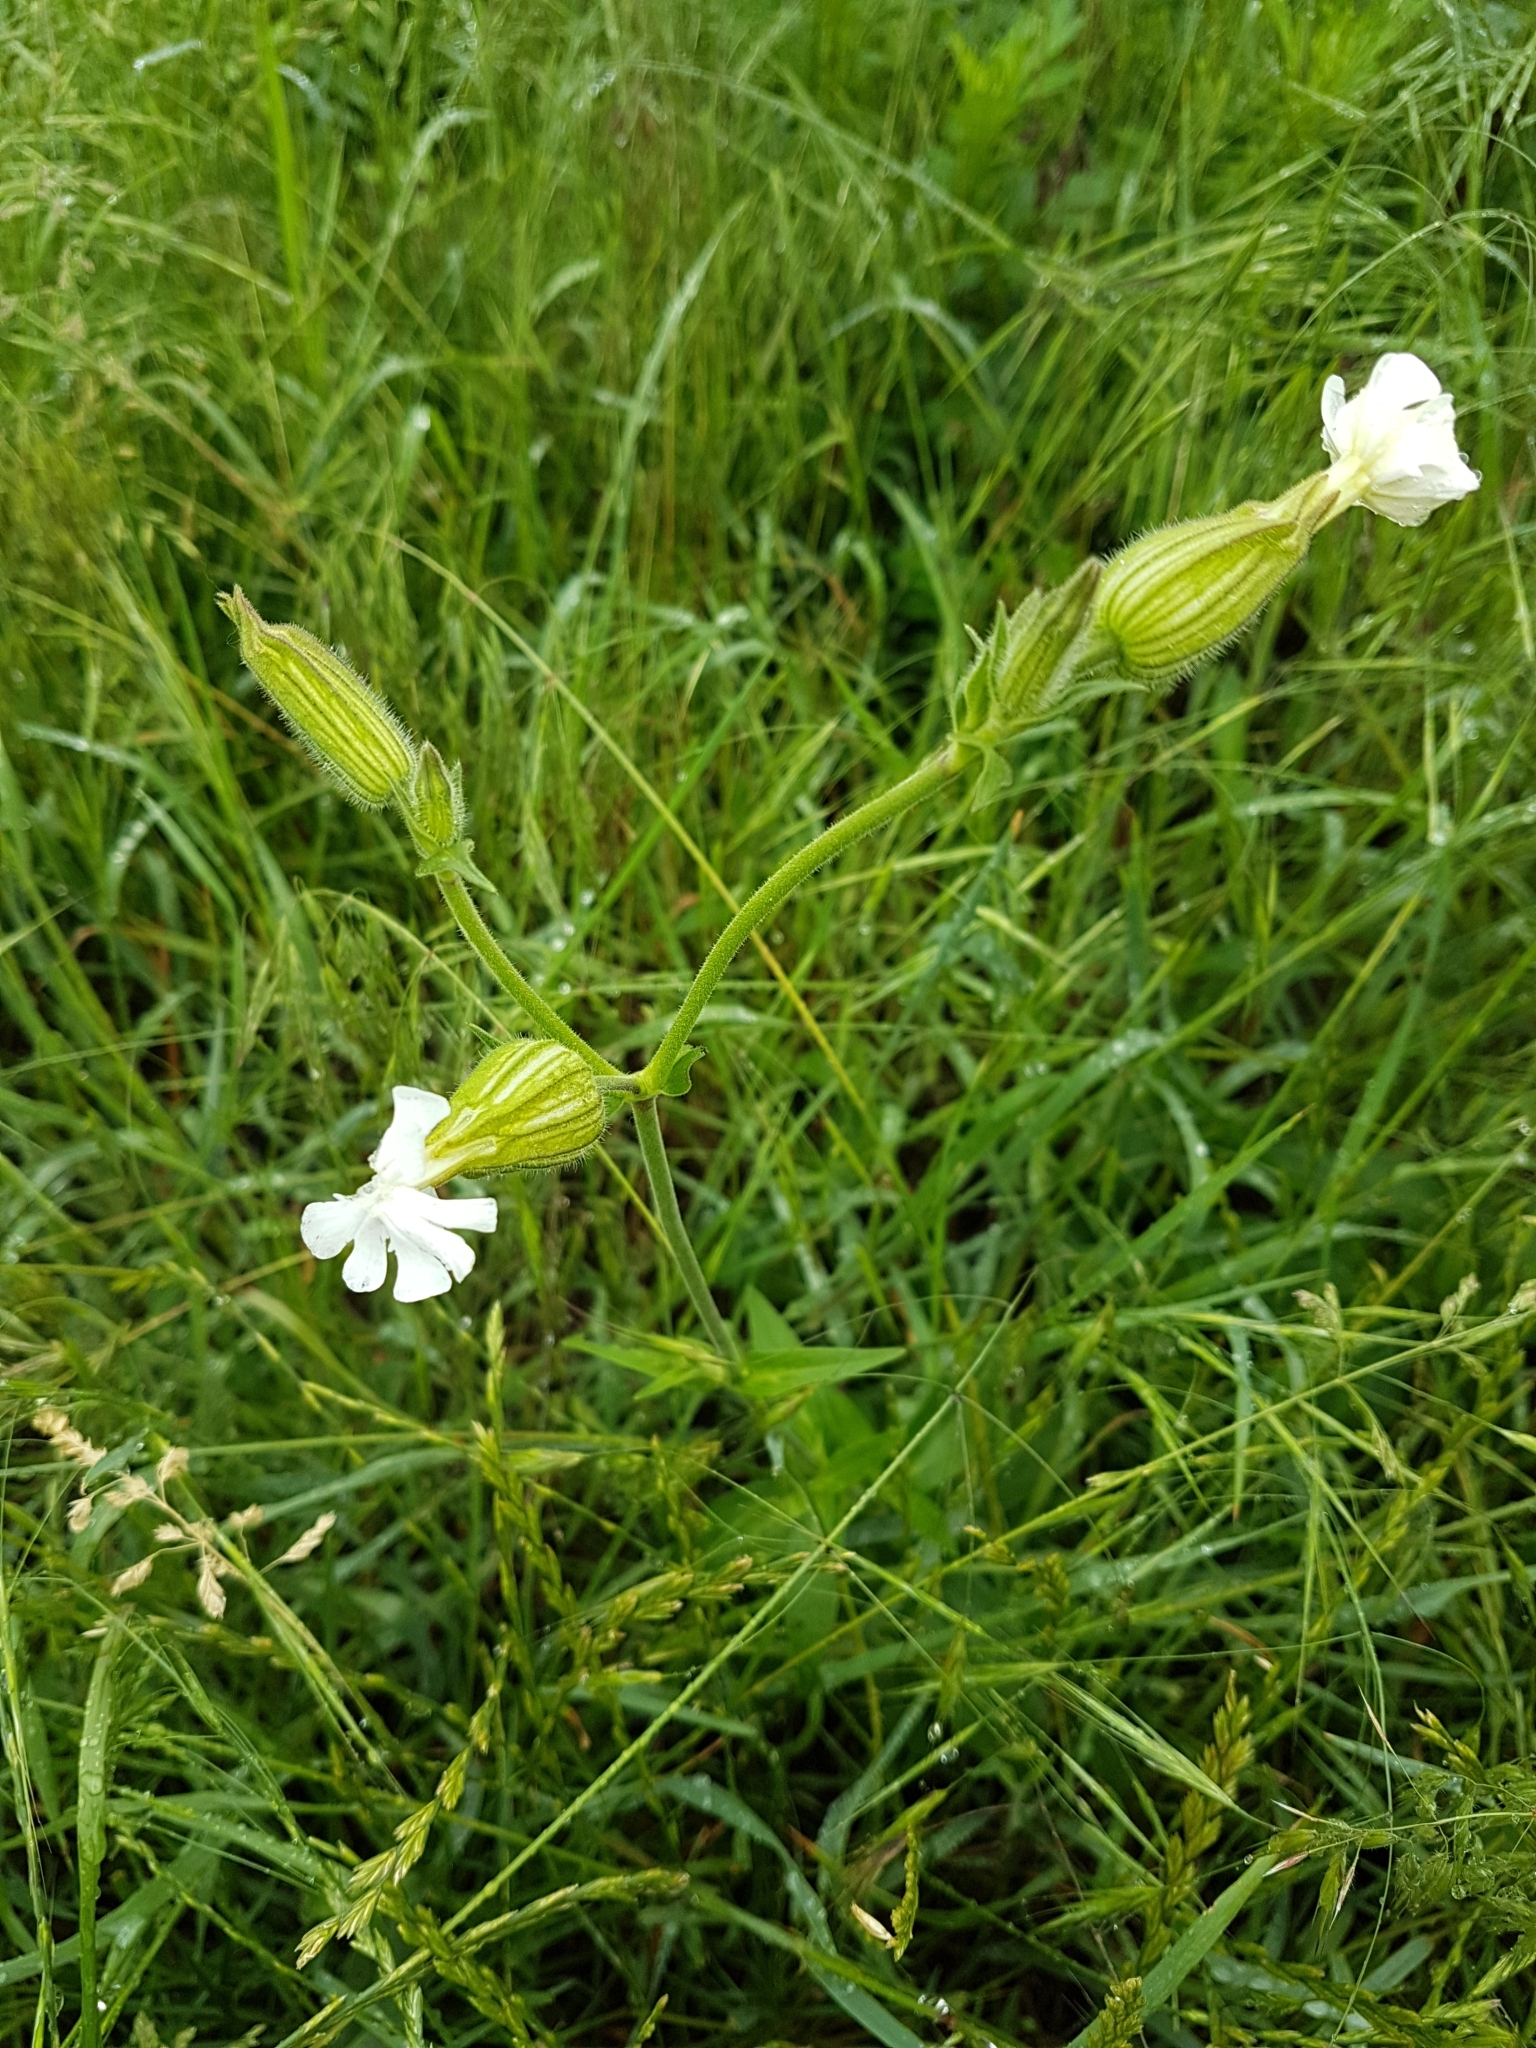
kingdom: Plantae
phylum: Tracheophyta
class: Magnoliopsida
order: Caryophyllales
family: Caryophyllaceae
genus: Silene
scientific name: Silene latifolia
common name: White campion
